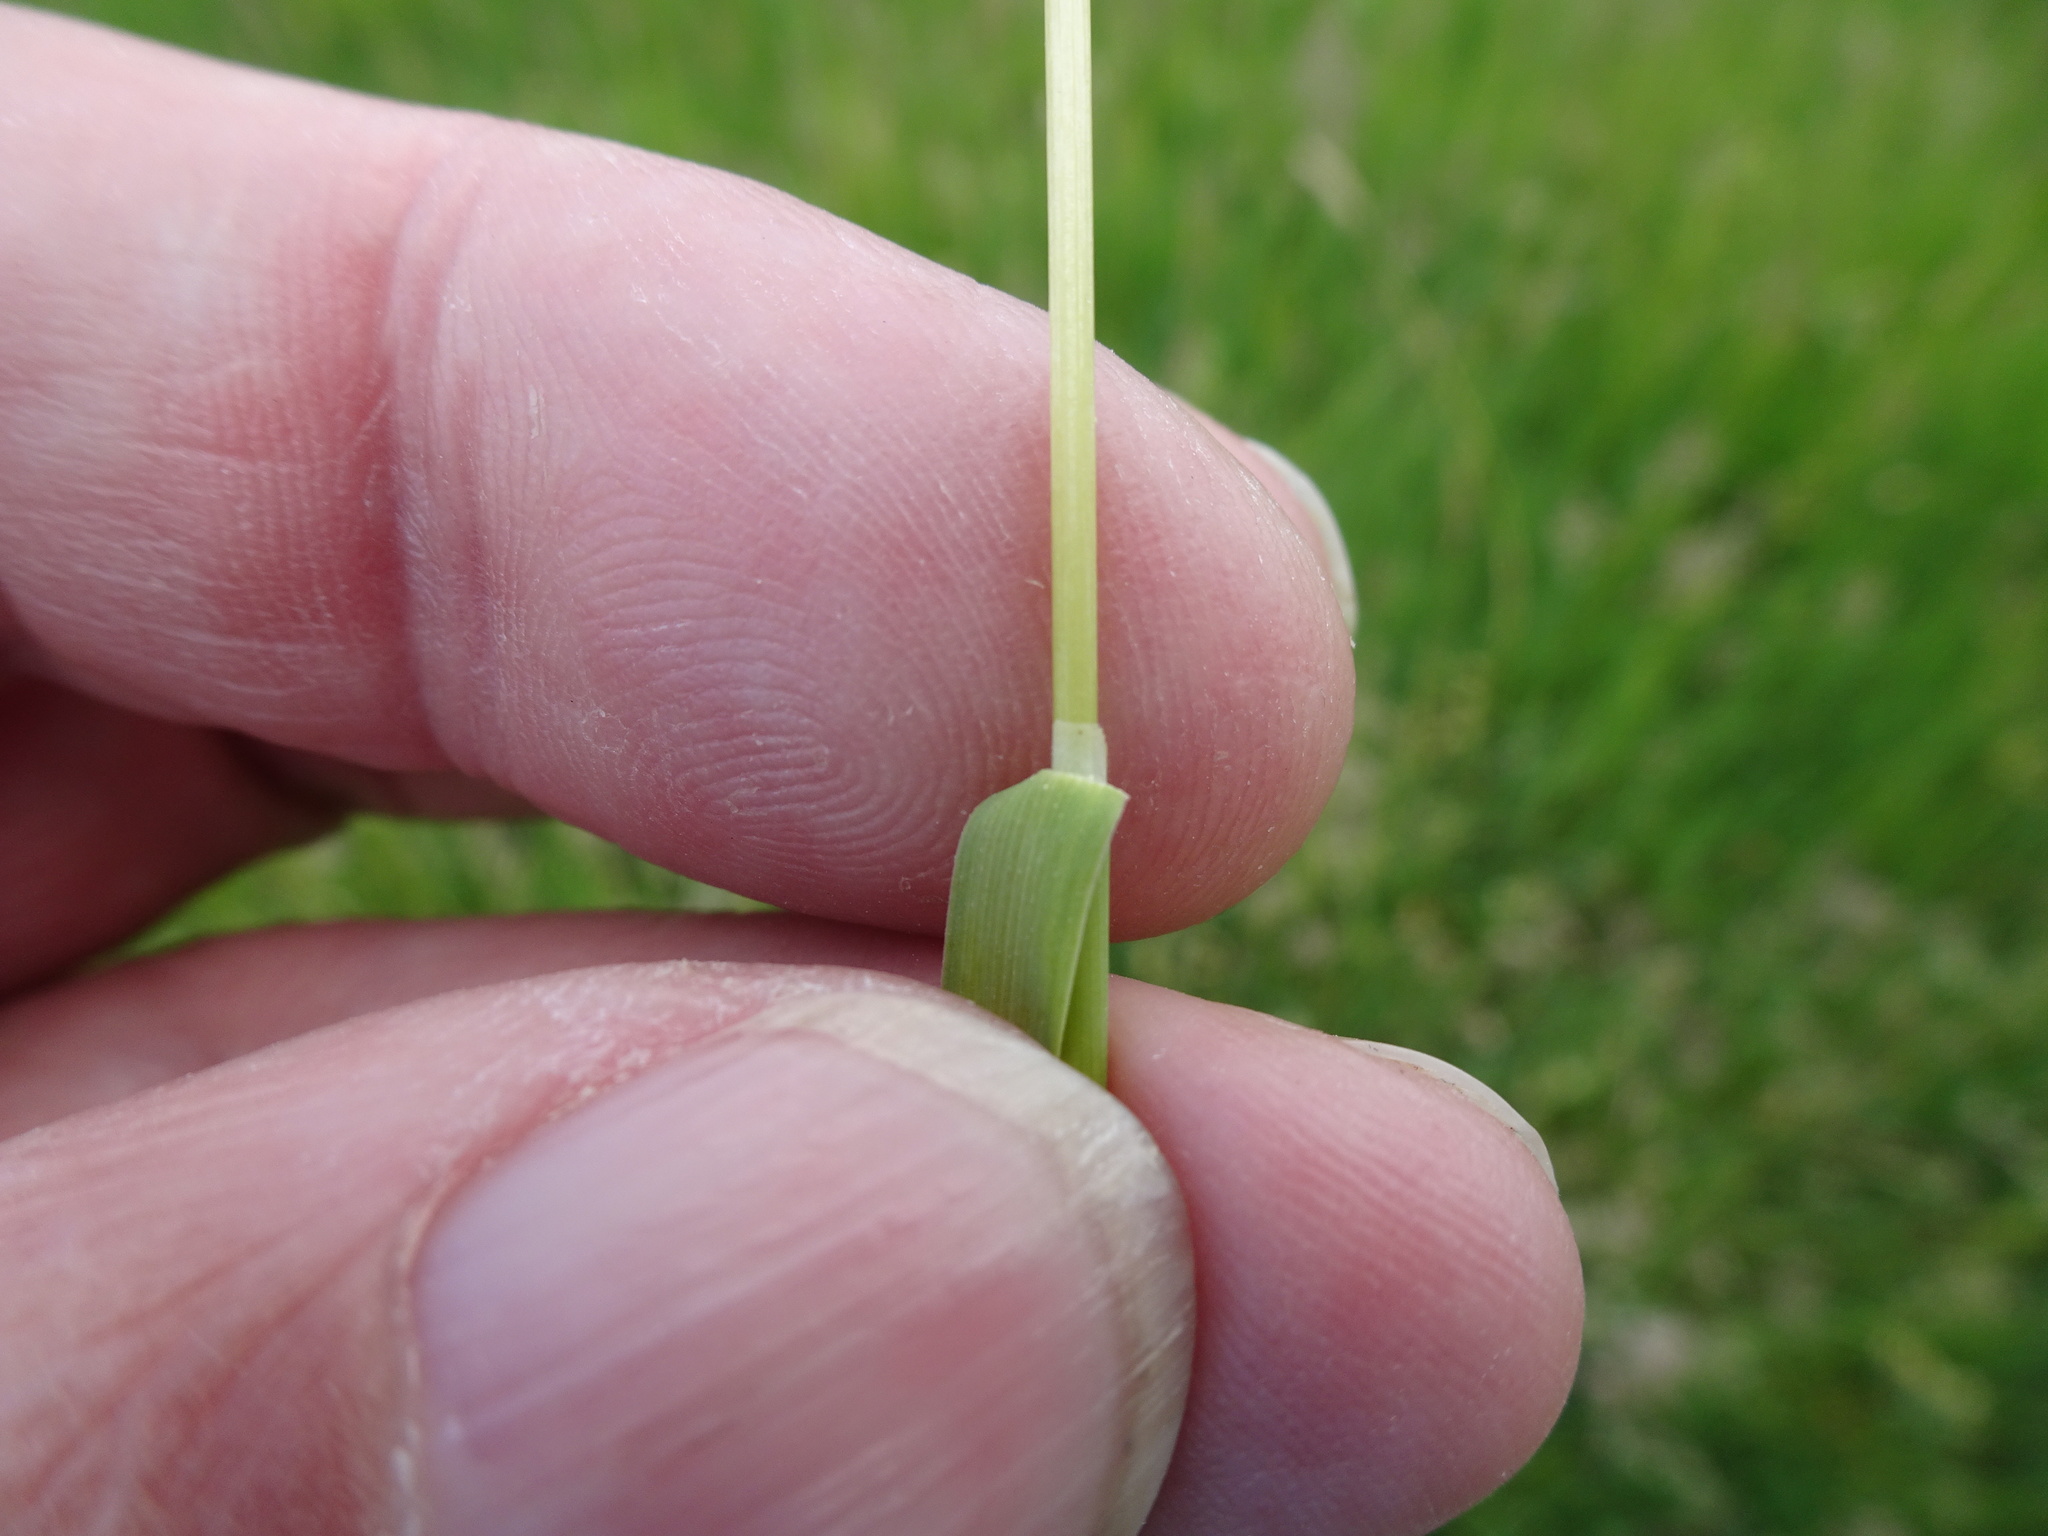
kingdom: Plantae
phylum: Tracheophyta
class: Liliopsida
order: Poales
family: Poaceae
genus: Poa
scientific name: Poa pratensis
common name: Kentucky bluegrass
